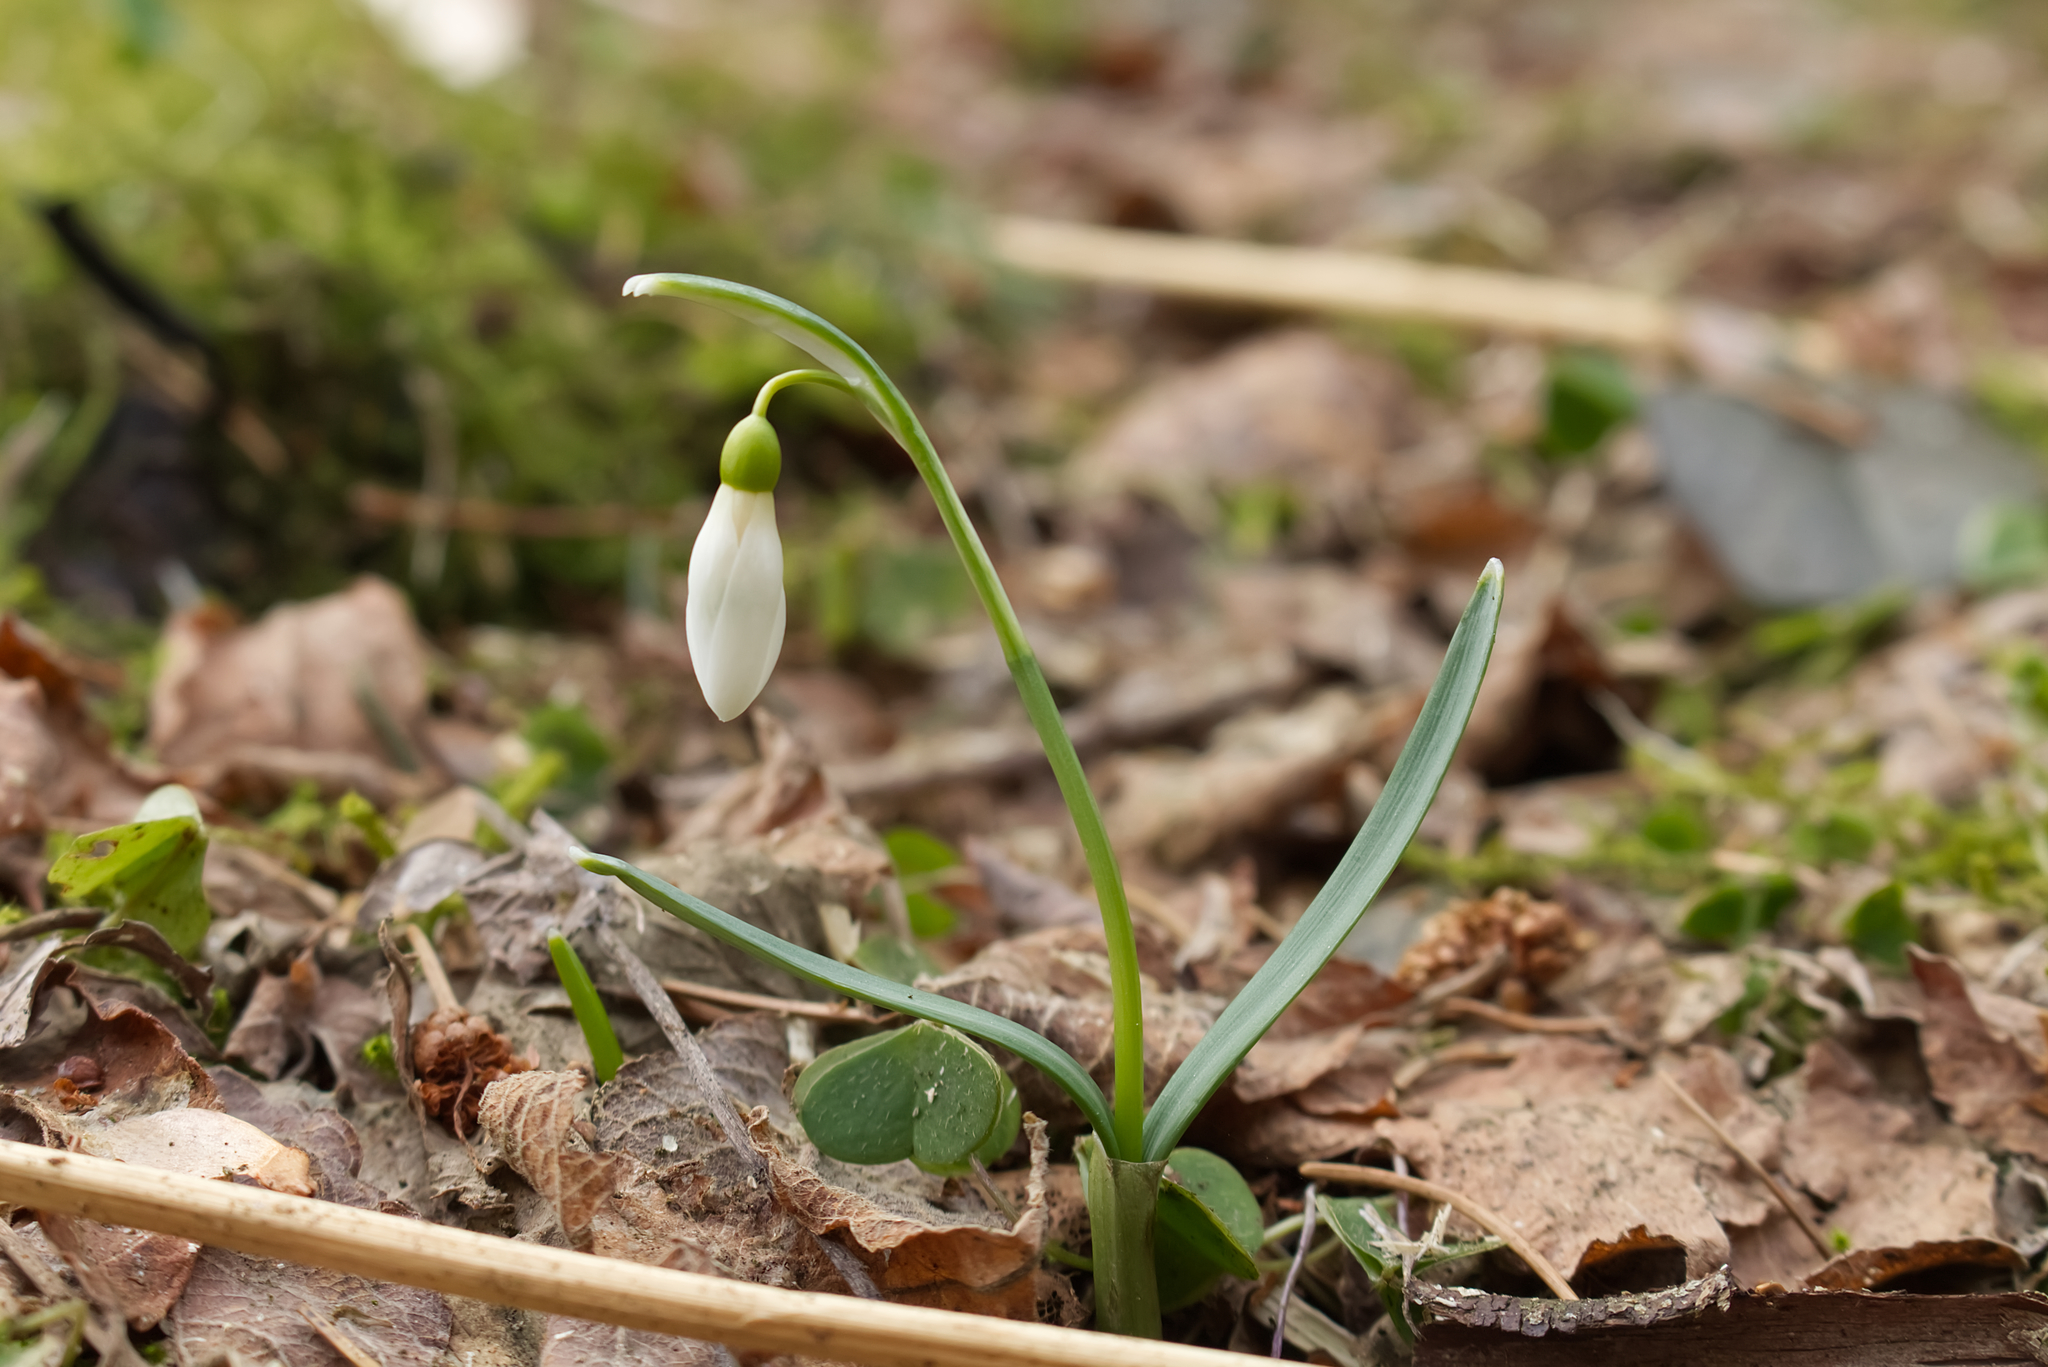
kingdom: Plantae
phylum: Tracheophyta
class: Liliopsida
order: Asparagales
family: Amaryllidaceae
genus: Galanthus
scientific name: Galanthus nivalis
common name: Snowdrop
